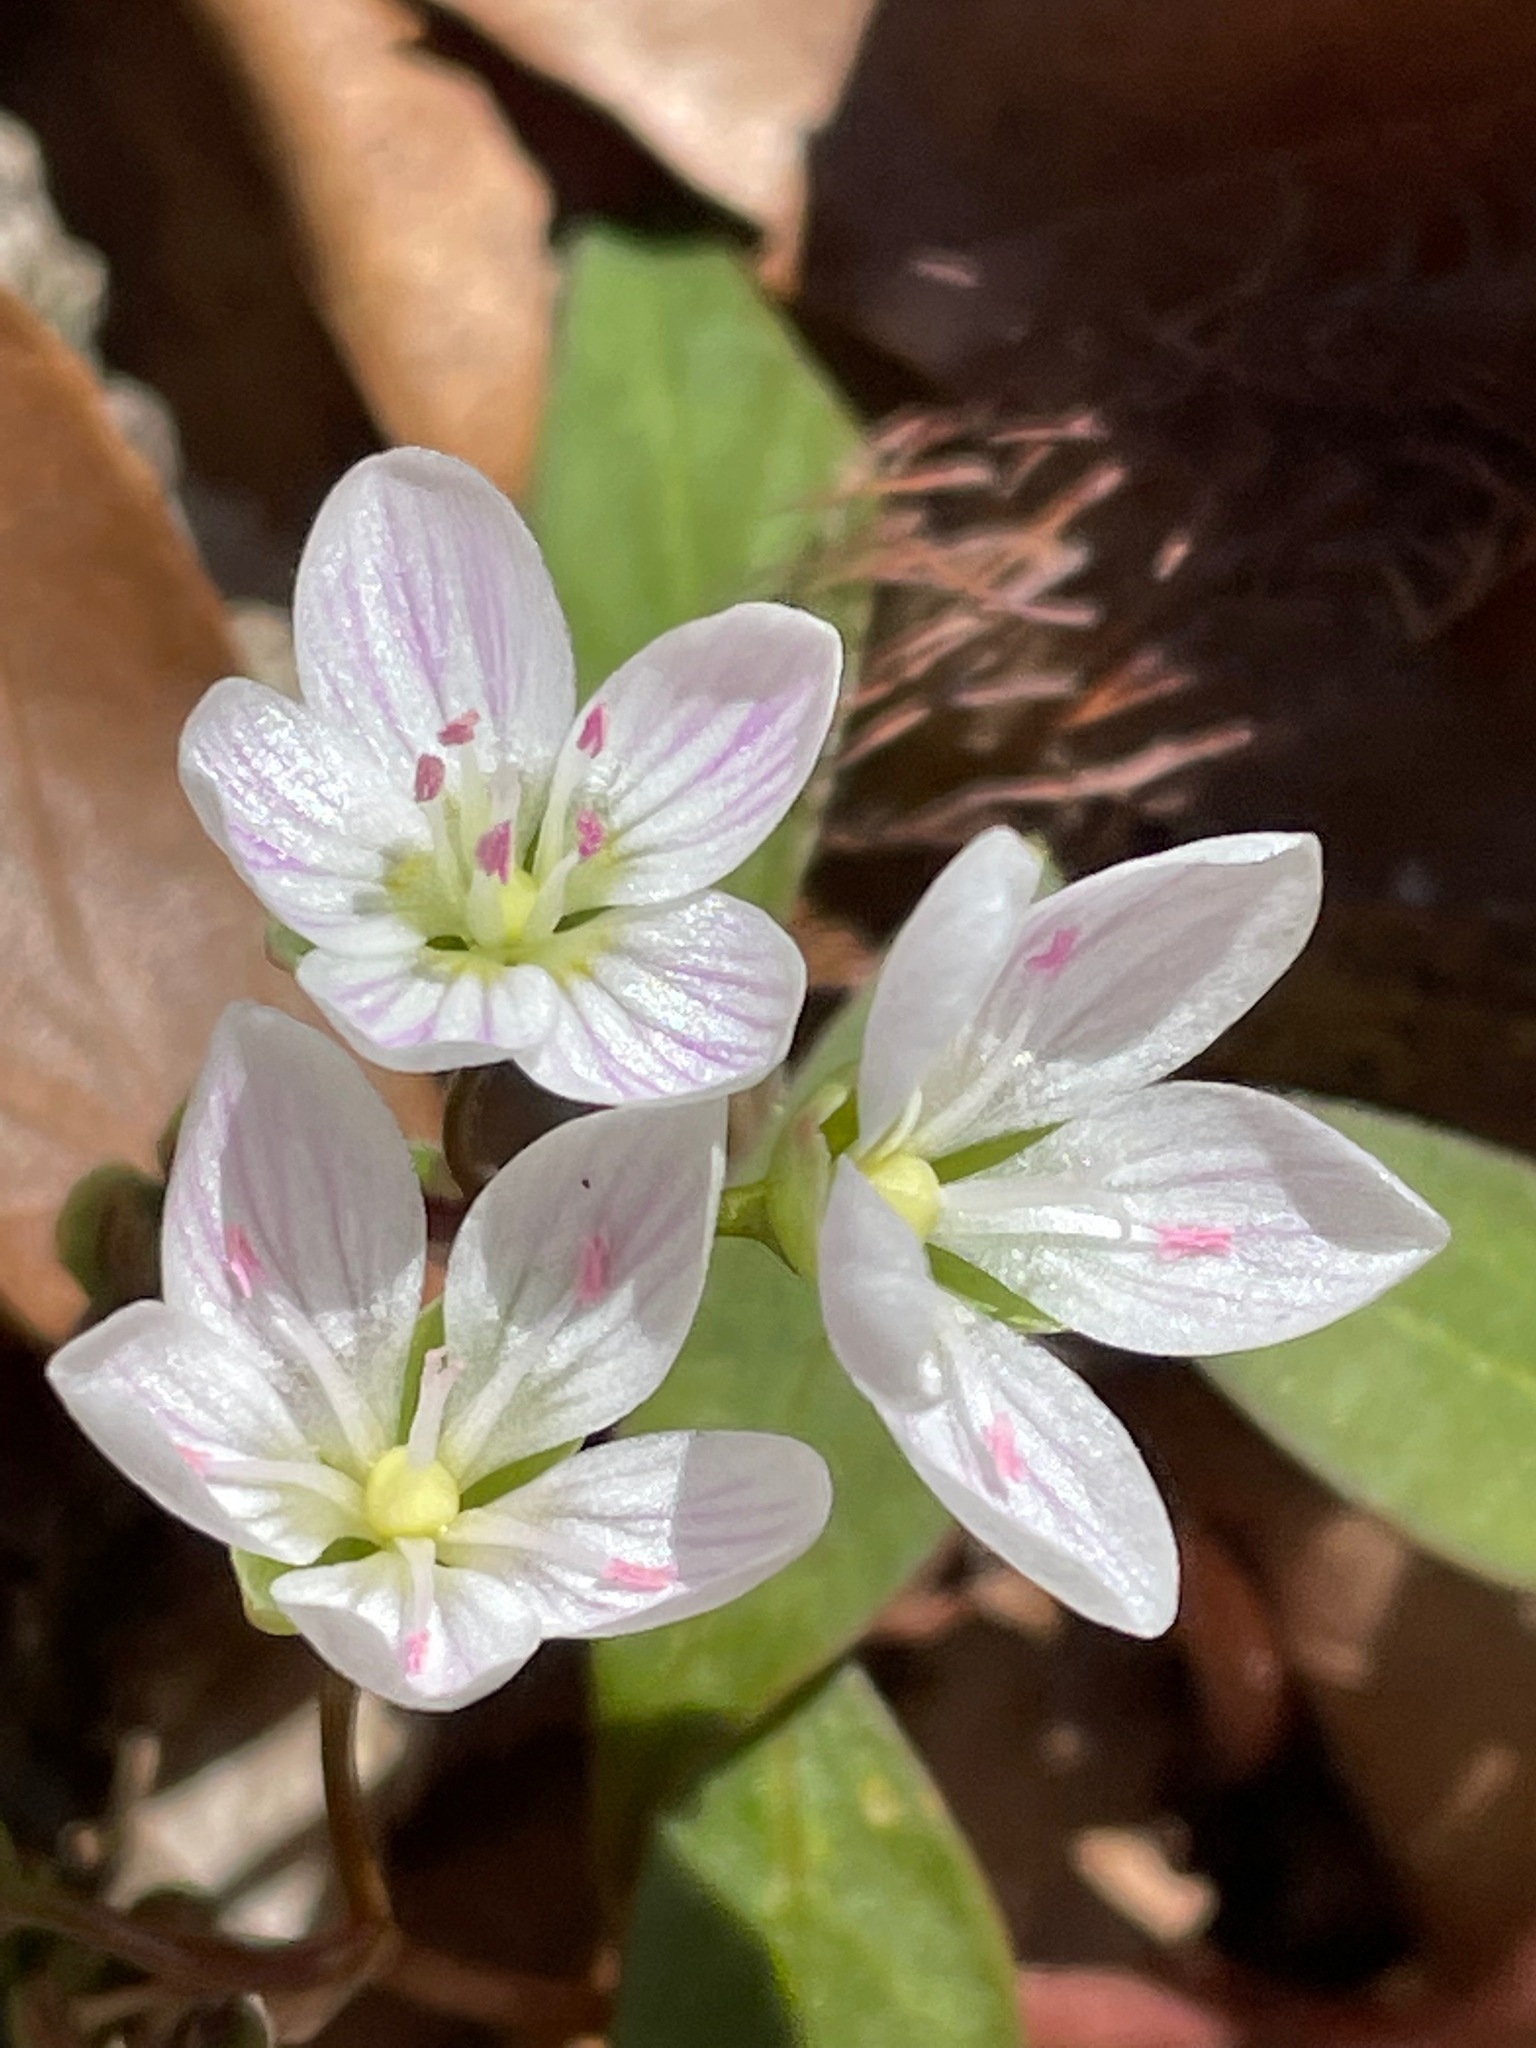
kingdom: Plantae
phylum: Tracheophyta
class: Magnoliopsida
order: Caryophyllales
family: Montiaceae
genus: Claytonia
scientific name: Claytonia caroliniana
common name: Carolina spring beauty
